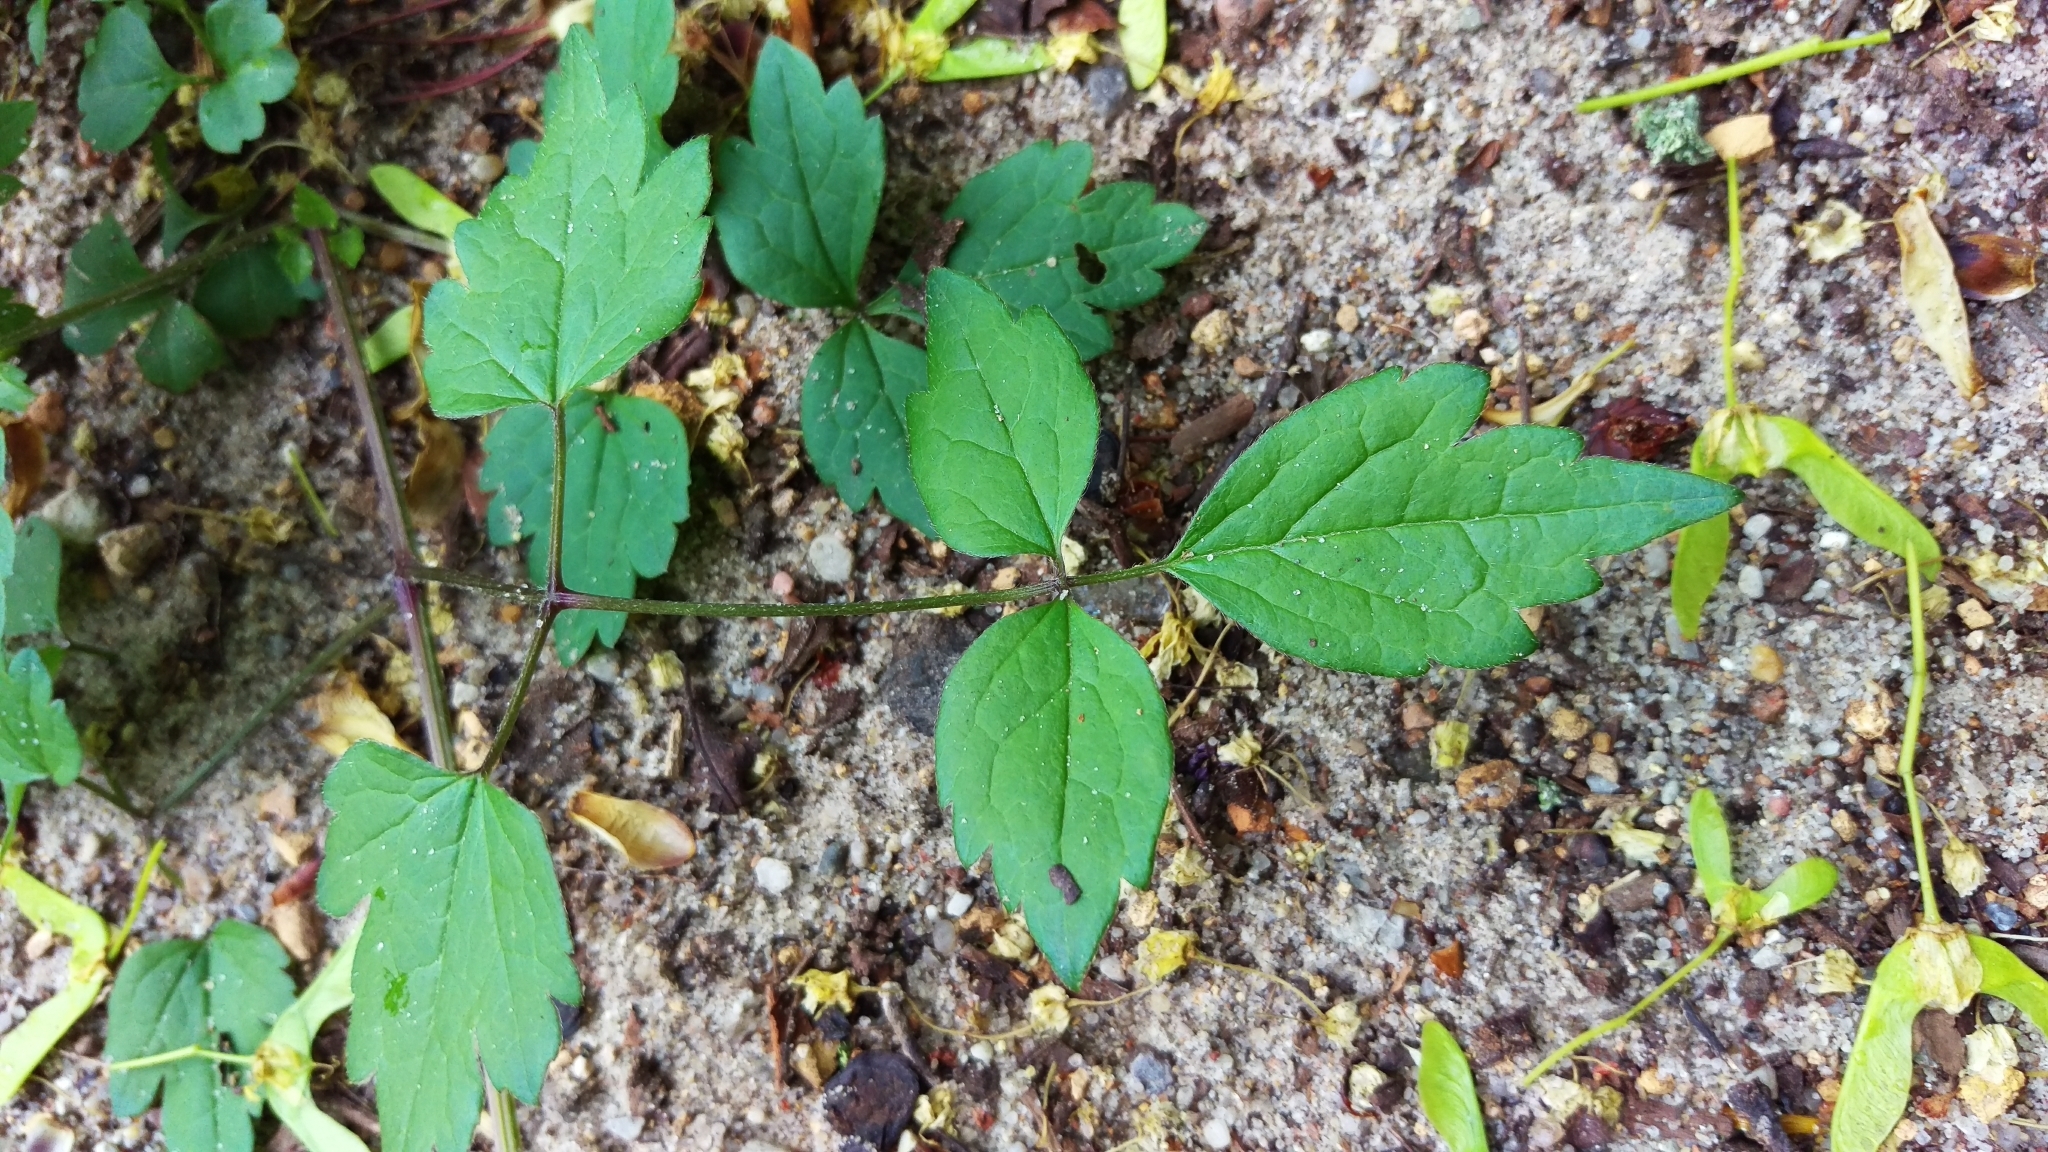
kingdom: Plantae
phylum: Tracheophyta
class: Magnoliopsida
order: Ranunculales
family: Ranunculaceae
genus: Clematis
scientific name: Clematis vitalba
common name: Evergreen clematis
